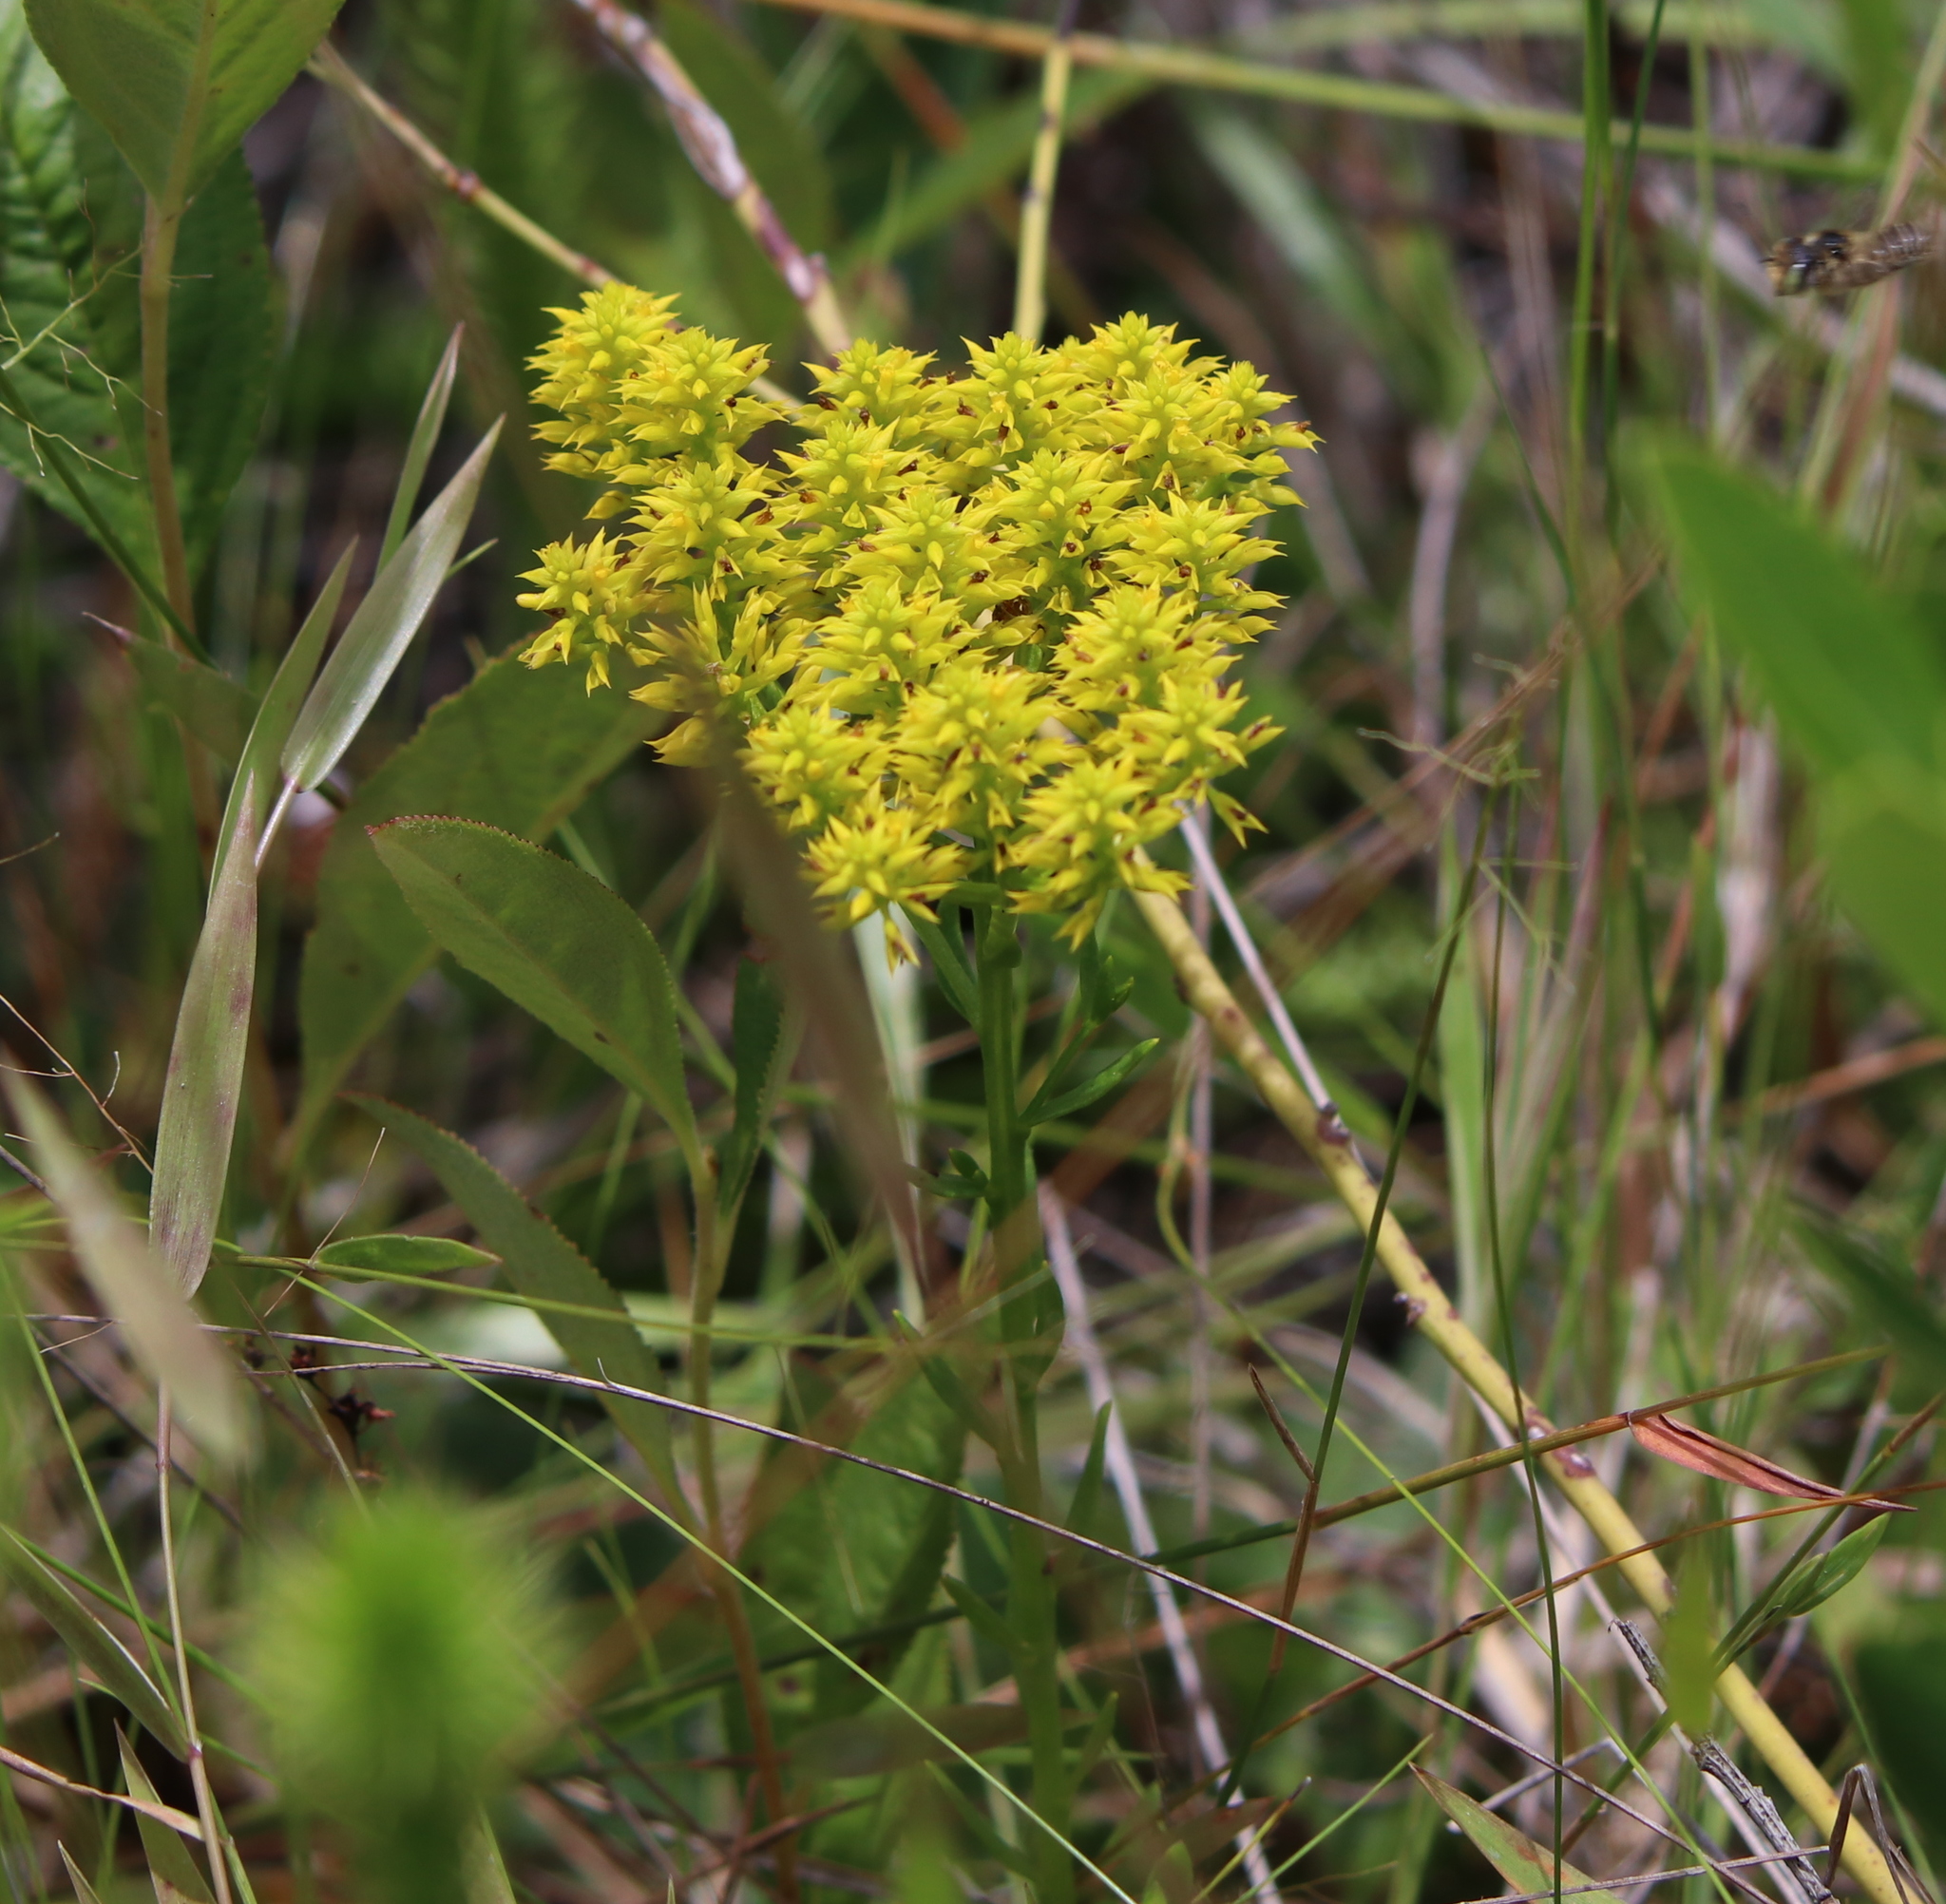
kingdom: Plantae
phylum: Tracheophyta
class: Magnoliopsida
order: Fabales
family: Polygalaceae
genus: Polygala
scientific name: Polygala ramosa
